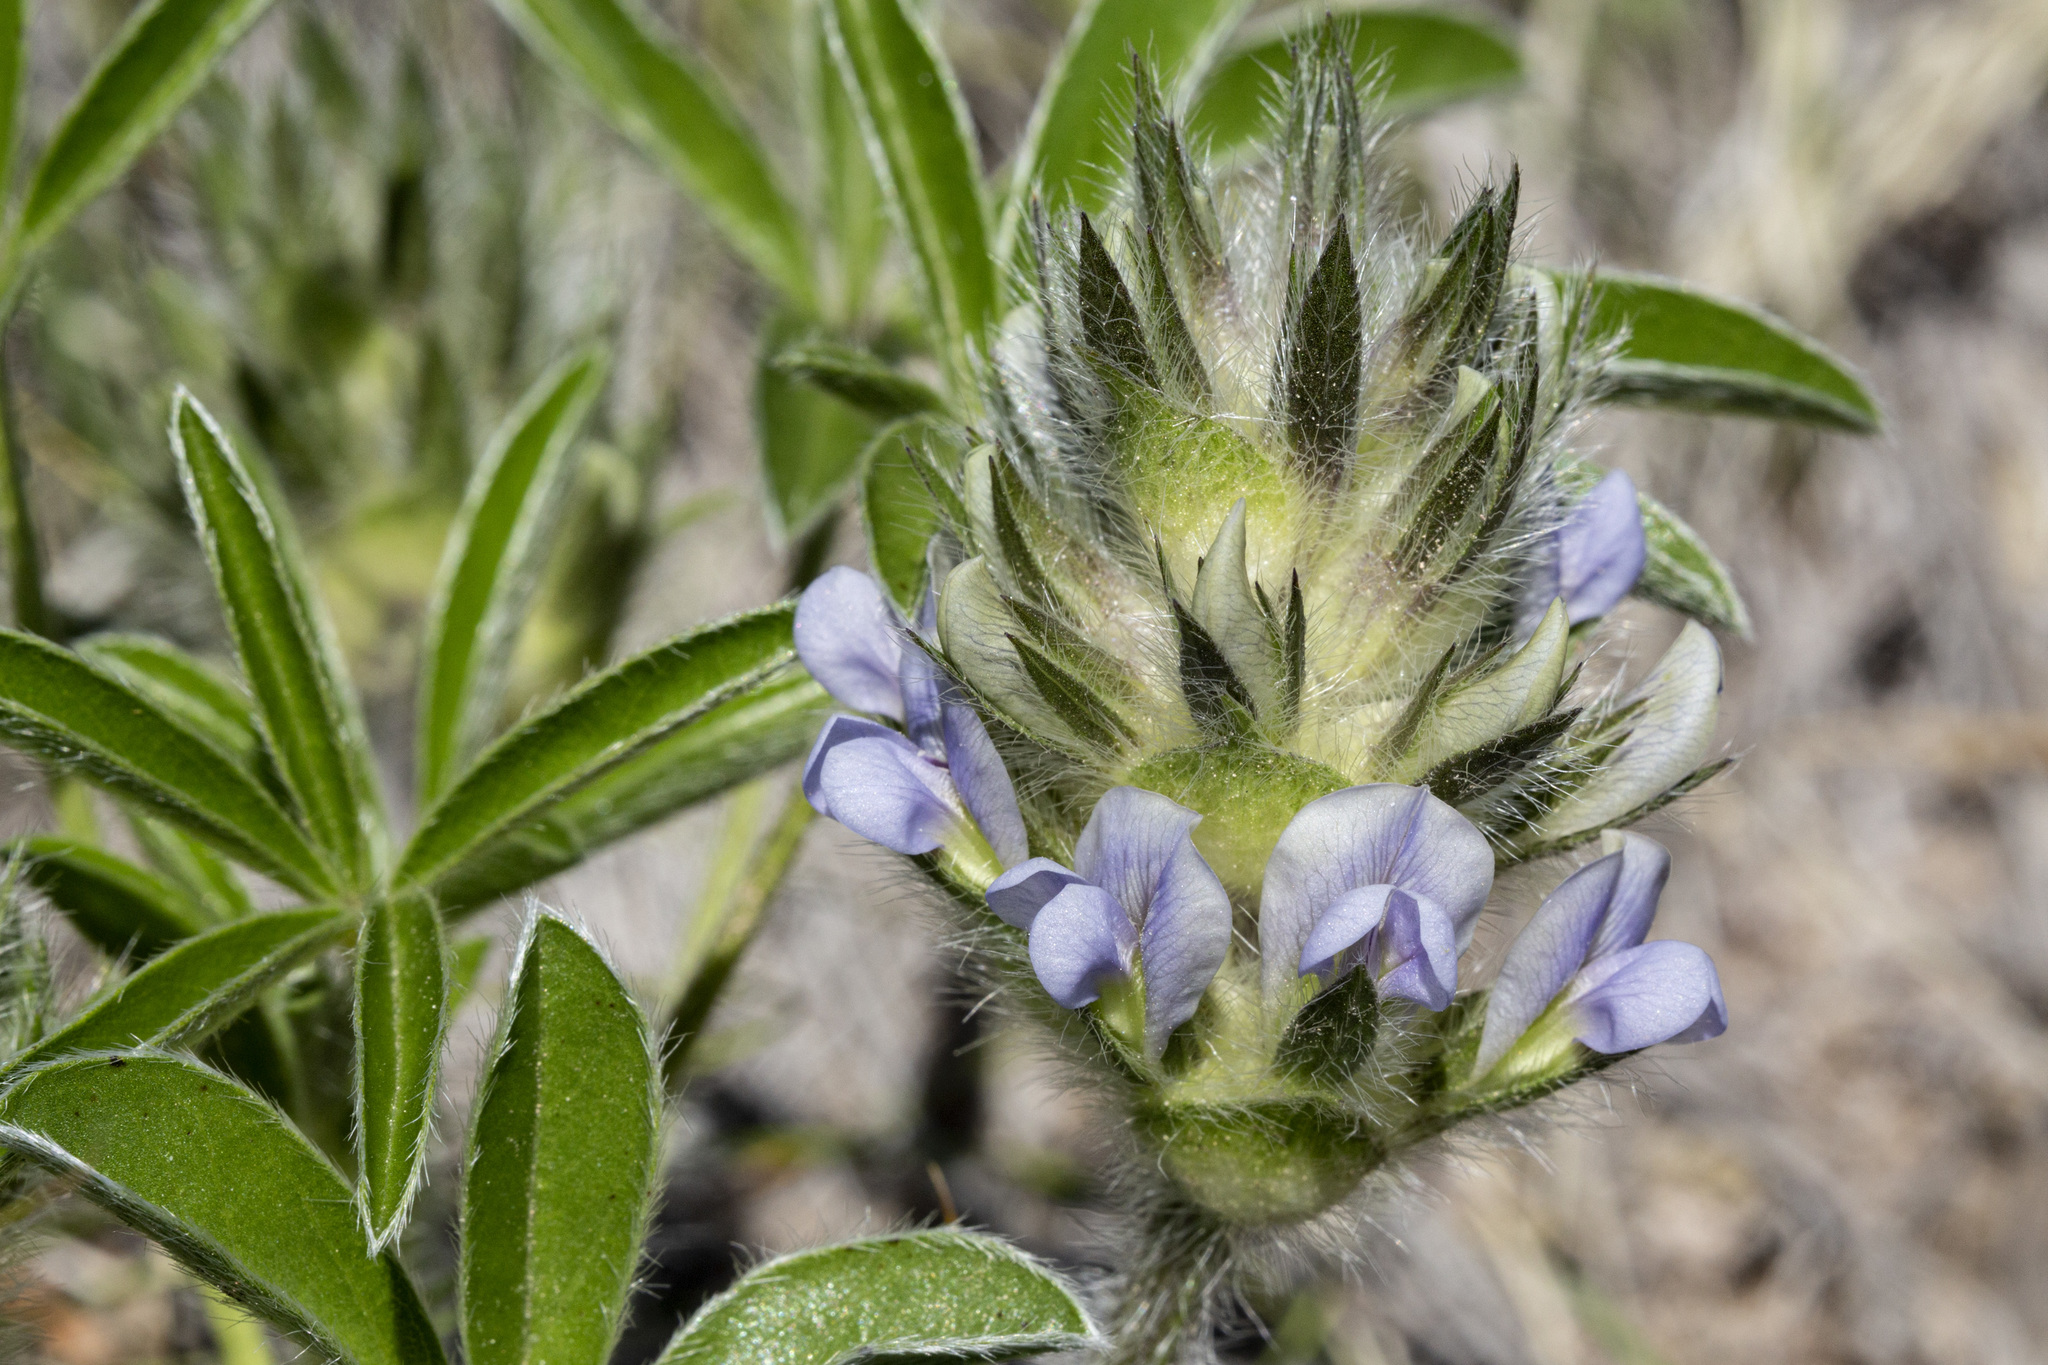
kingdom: Plantae
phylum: Tracheophyta
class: Magnoliopsida
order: Fabales
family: Fabaceae
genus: Pediomelum
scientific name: Pediomelum esculentum
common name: Indian-turnip
